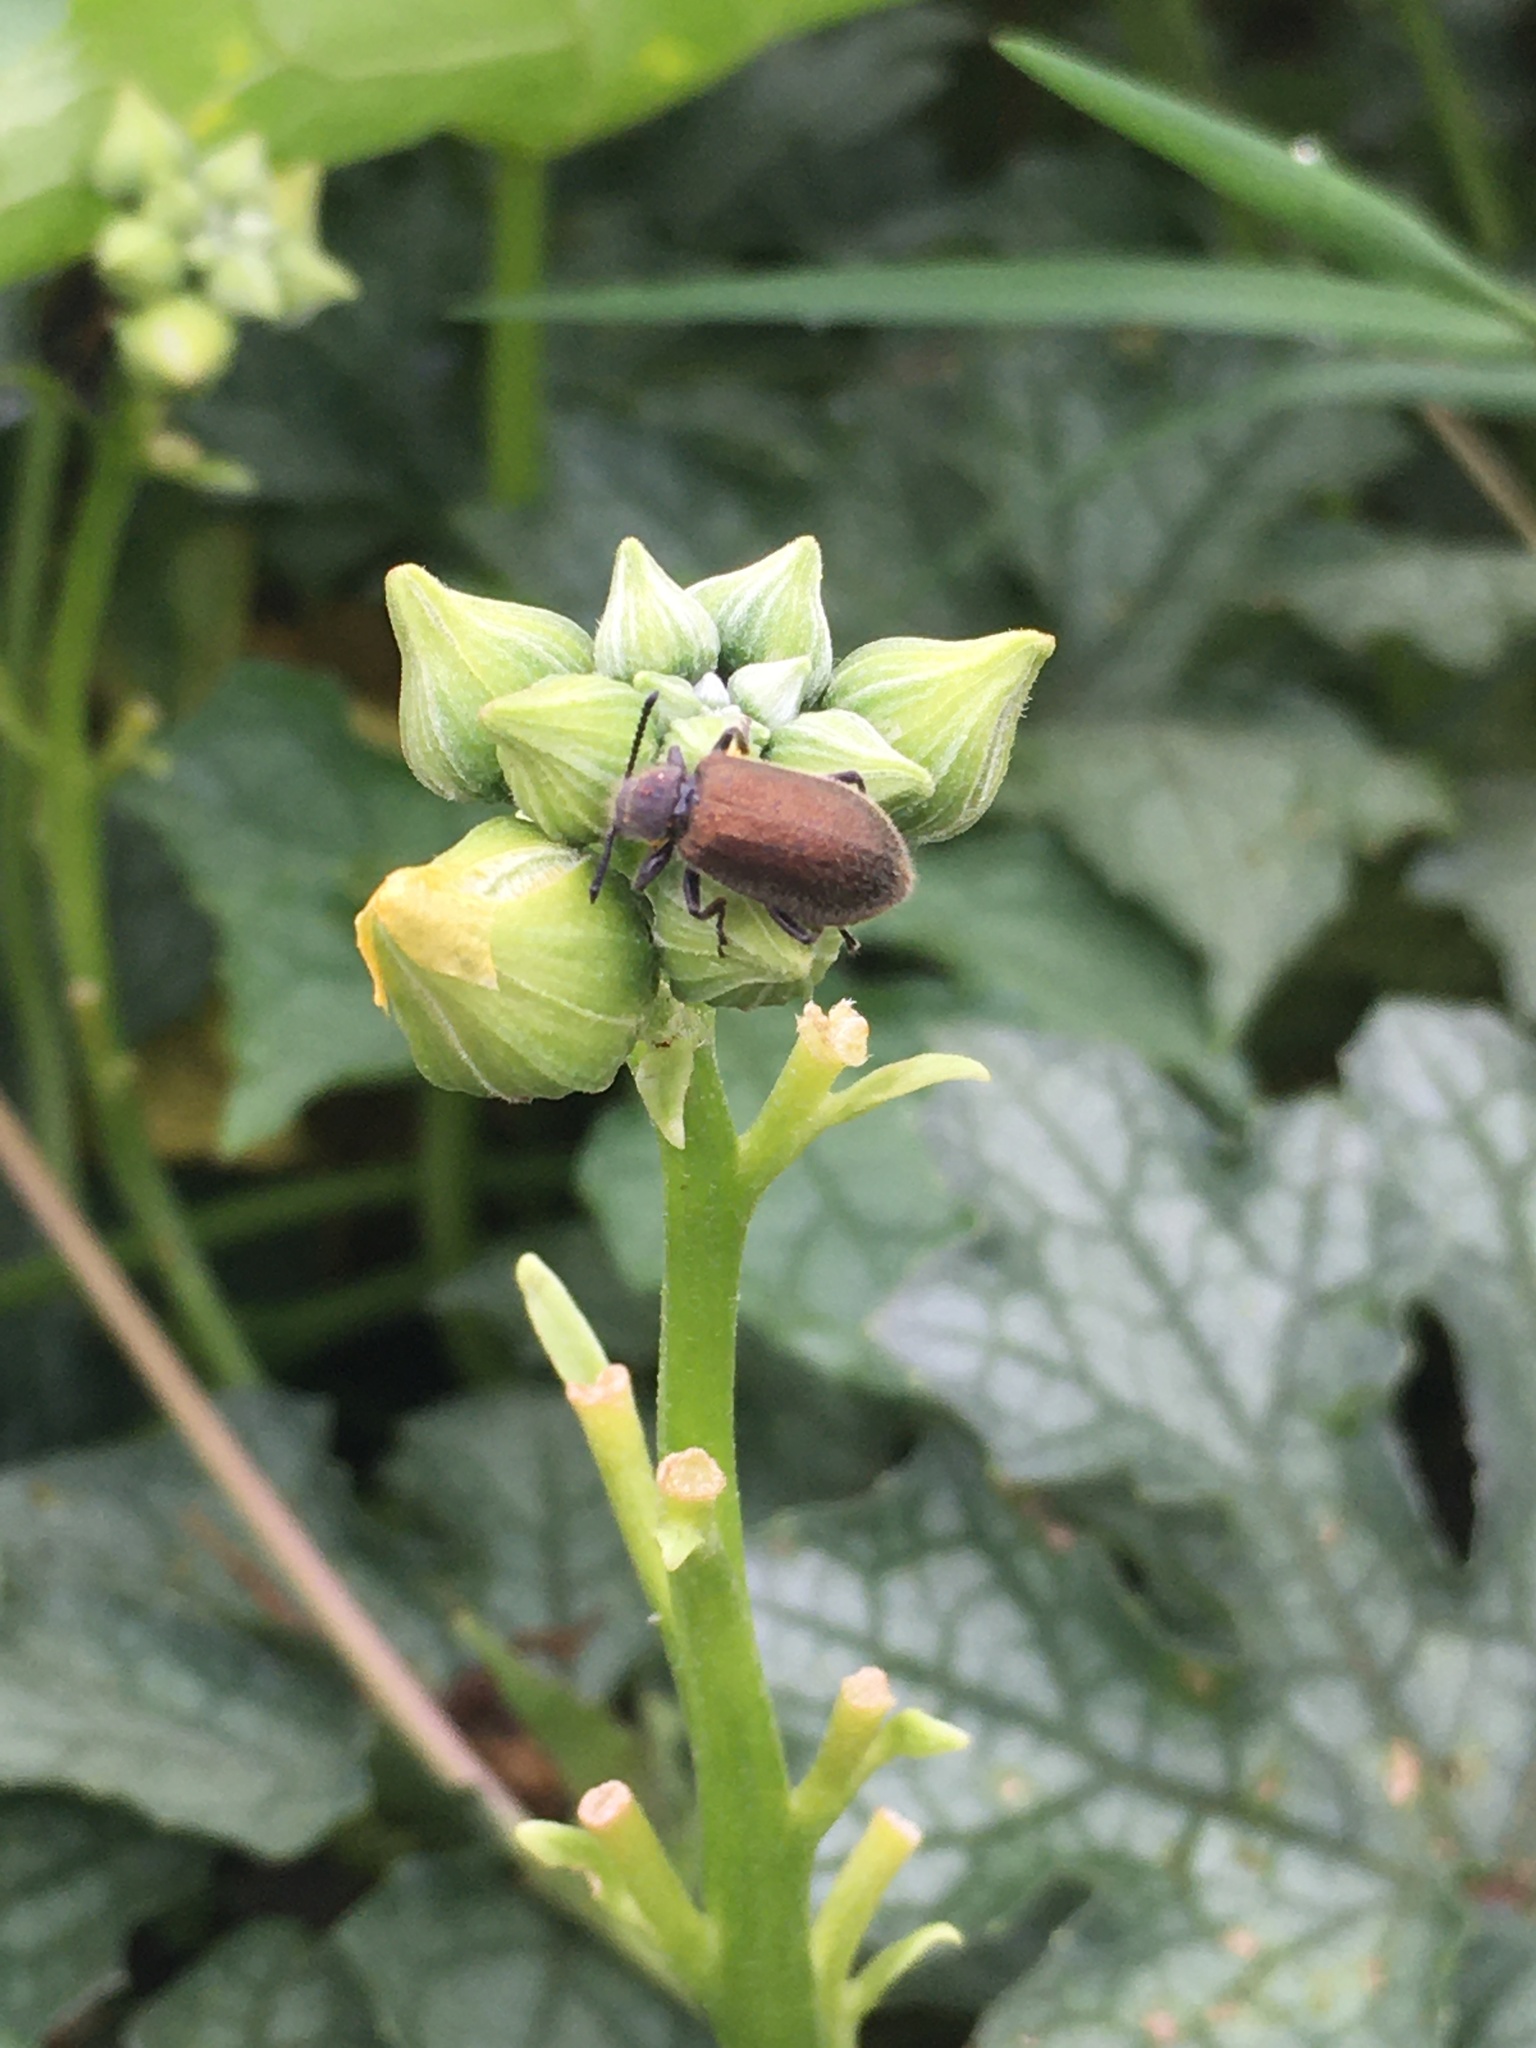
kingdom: Animalia
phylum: Arthropoda
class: Insecta
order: Coleoptera
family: Tenebrionidae
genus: Lagria
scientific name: Lagria villosa
